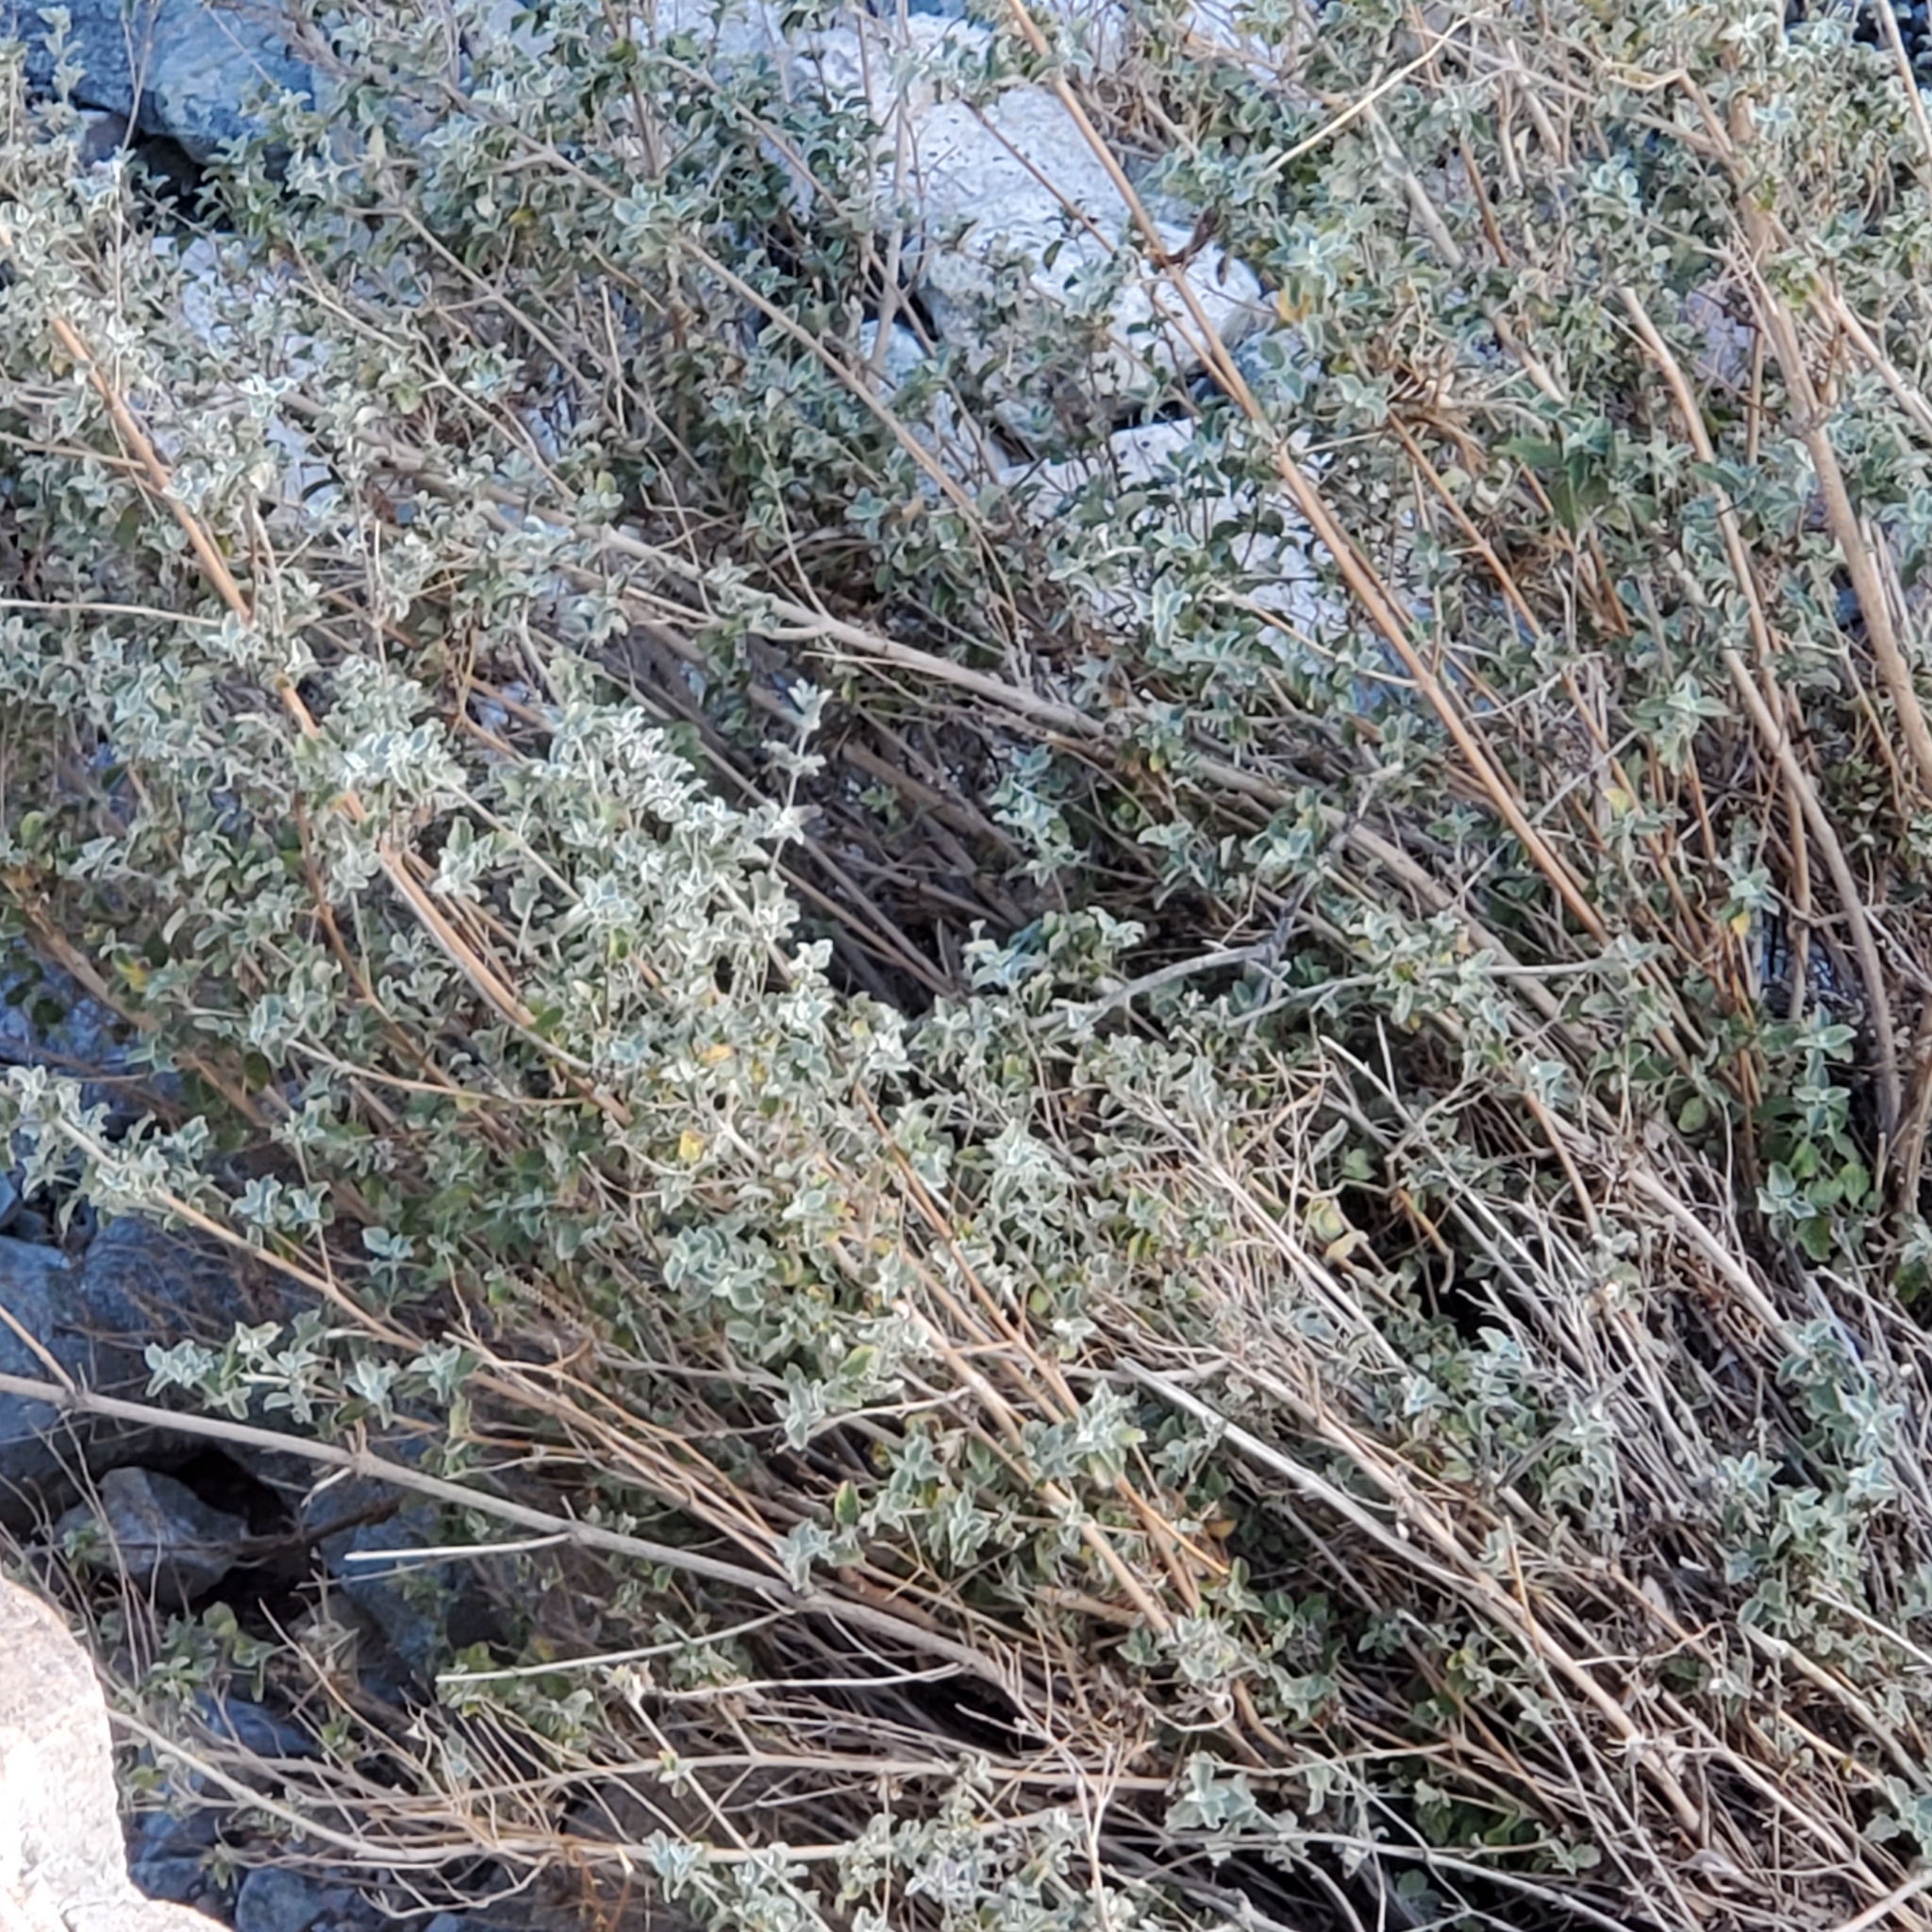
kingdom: Plantae
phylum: Tracheophyta
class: Magnoliopsida
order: Lamiales
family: Lamiaceae
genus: Condea
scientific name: Condea emoryi
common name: Chia
